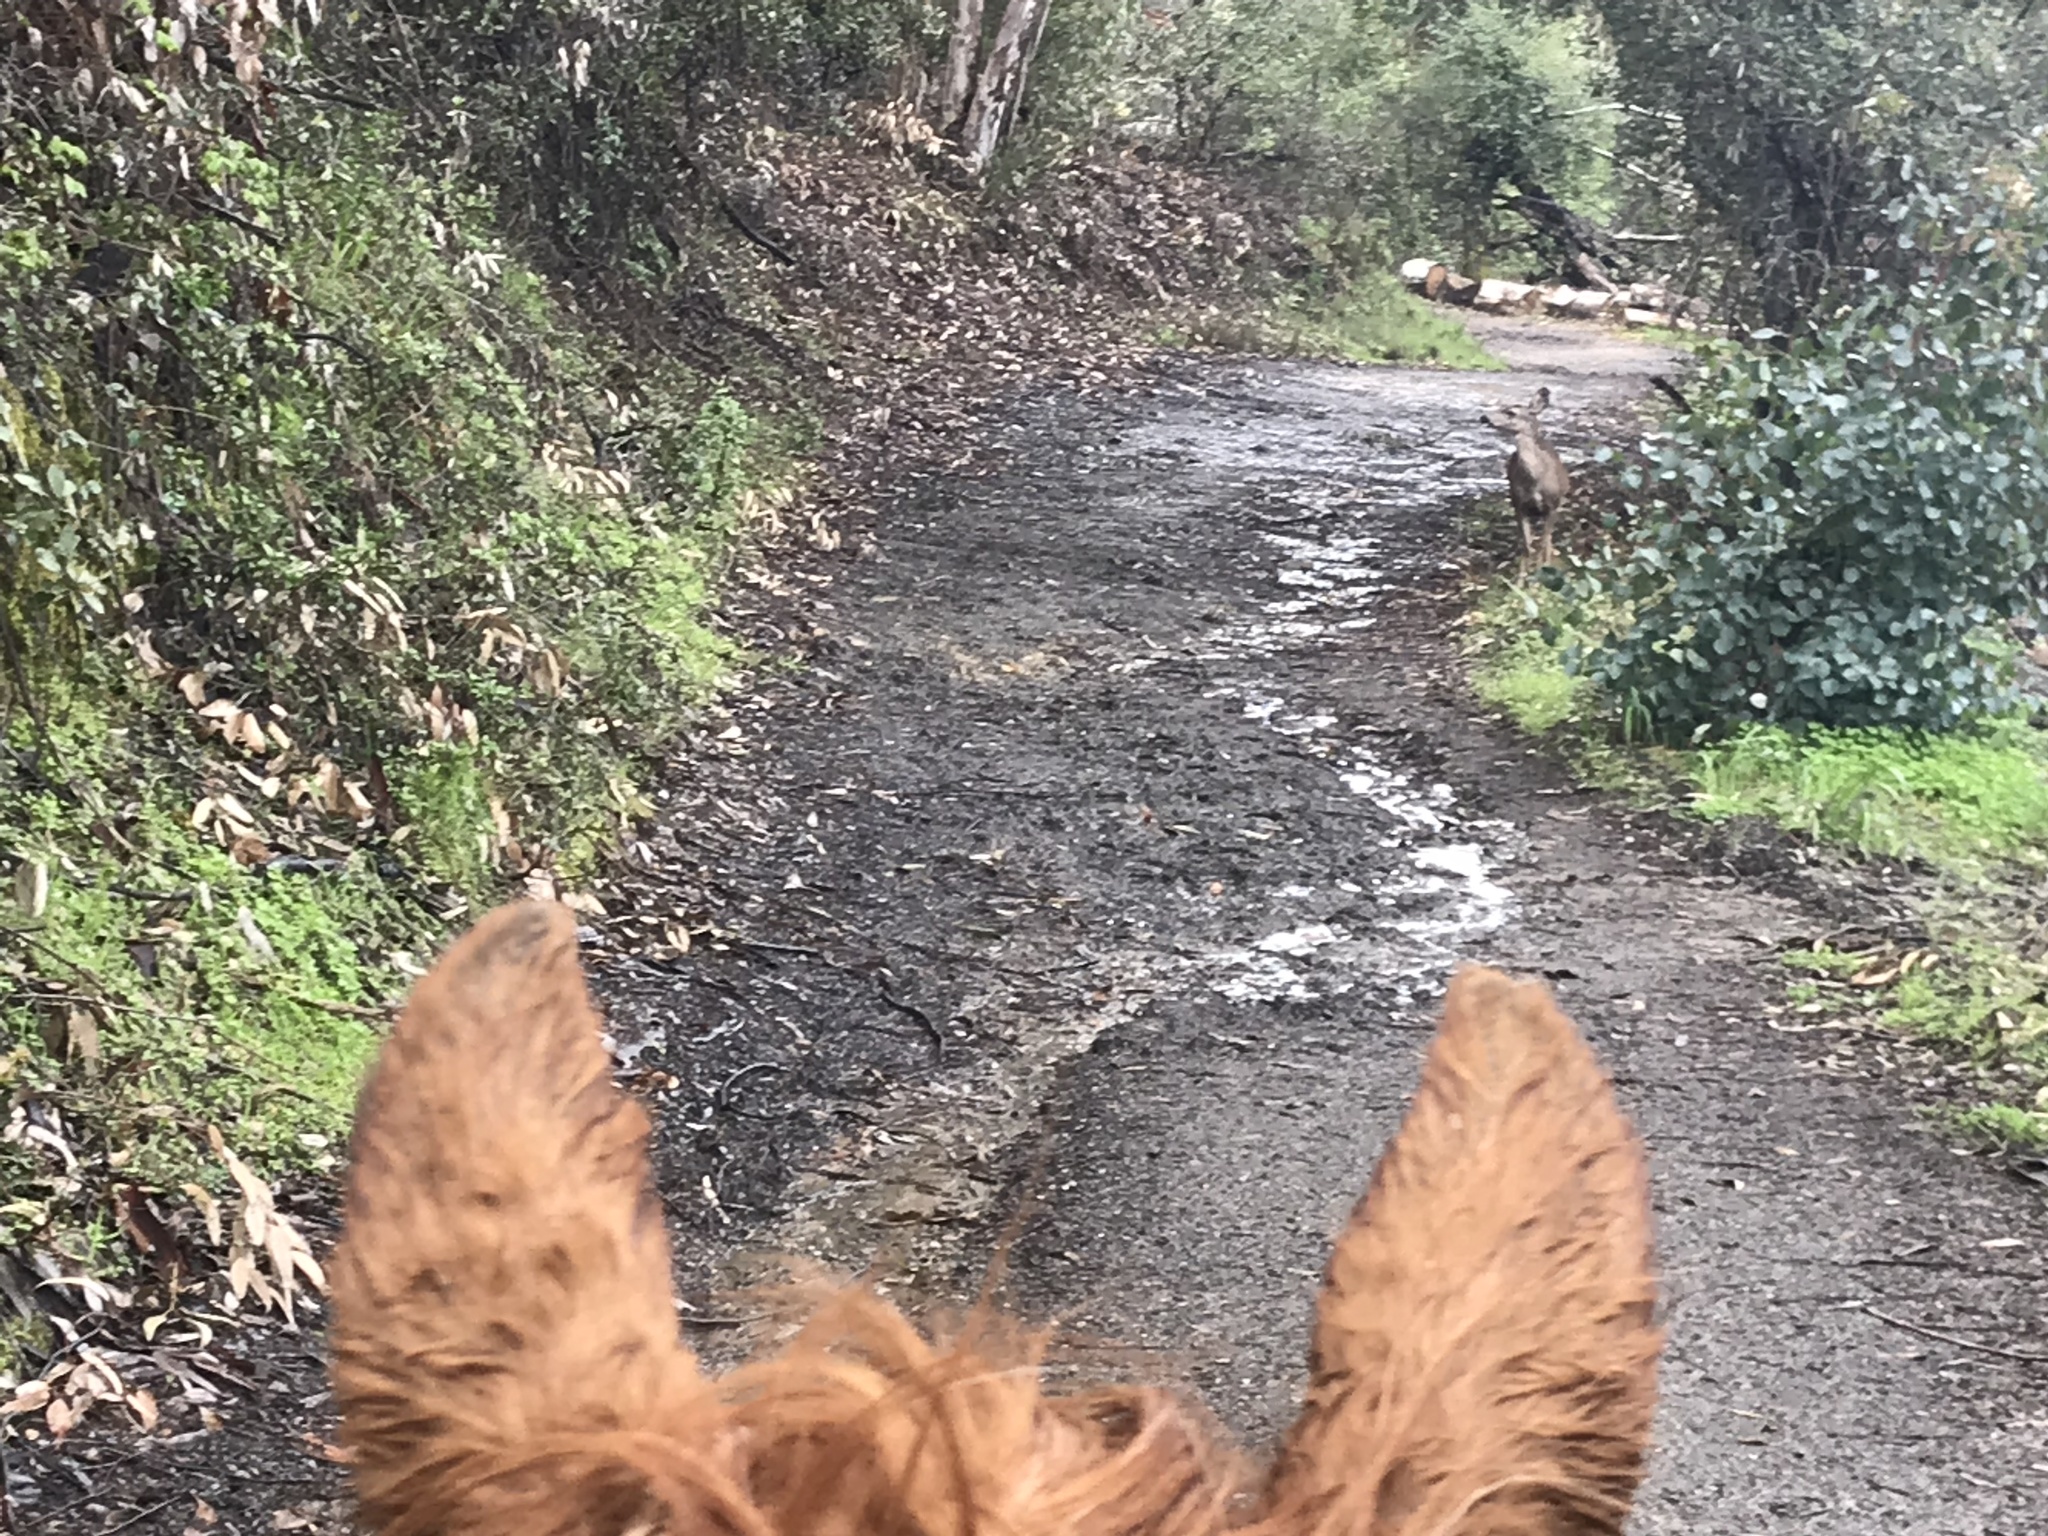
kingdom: Animalia
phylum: Chordata
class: Mammalia
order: Artiodactyla
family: Cervidae
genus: Odocoileus
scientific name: Odocoileus hemionus
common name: Mule deer
